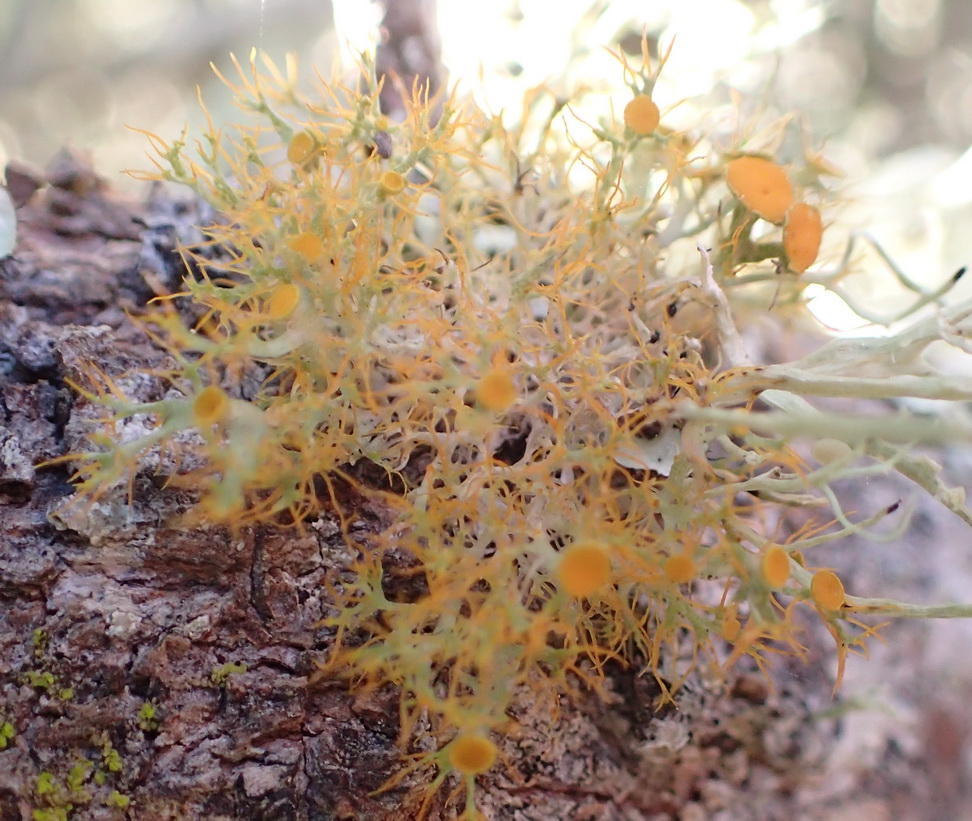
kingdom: Fungi
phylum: Ascomycota
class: Lecanoromycetes
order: Teloschistales
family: Teloschistaceae
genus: Teloschistes
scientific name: Teloschistes pulvinaris
